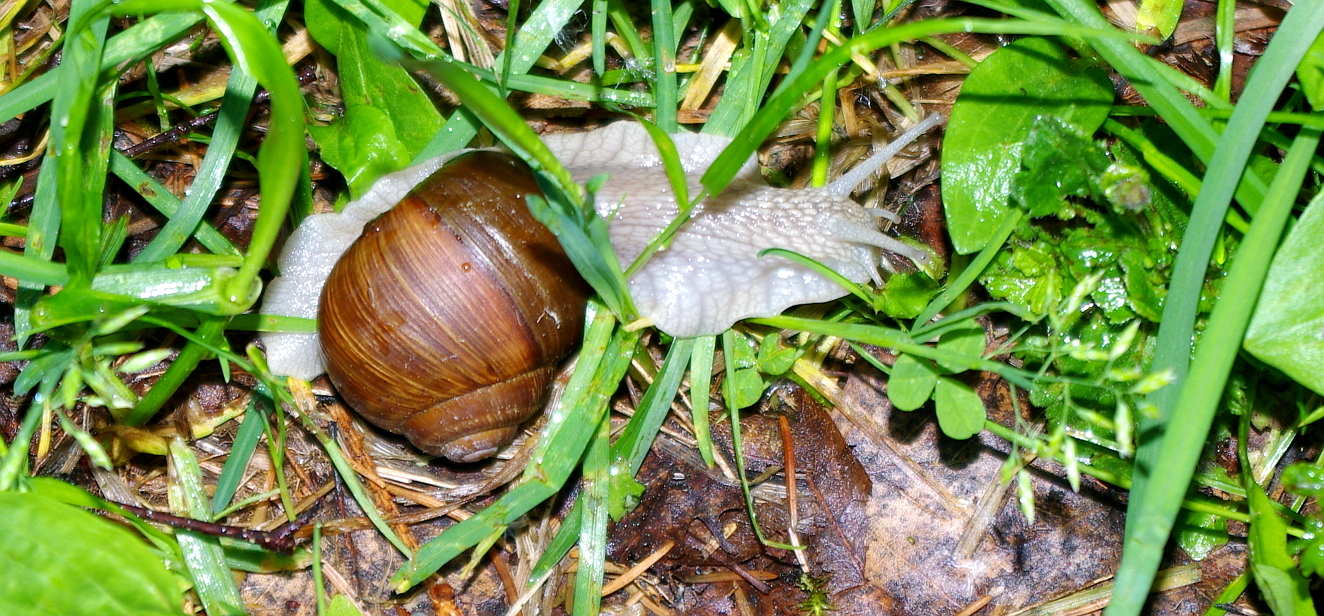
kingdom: Animalia
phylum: Mollusca
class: Gastropoda
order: Stylommatophora
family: Helicidae
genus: Helix
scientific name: Helix pomatia
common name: Roman snail
